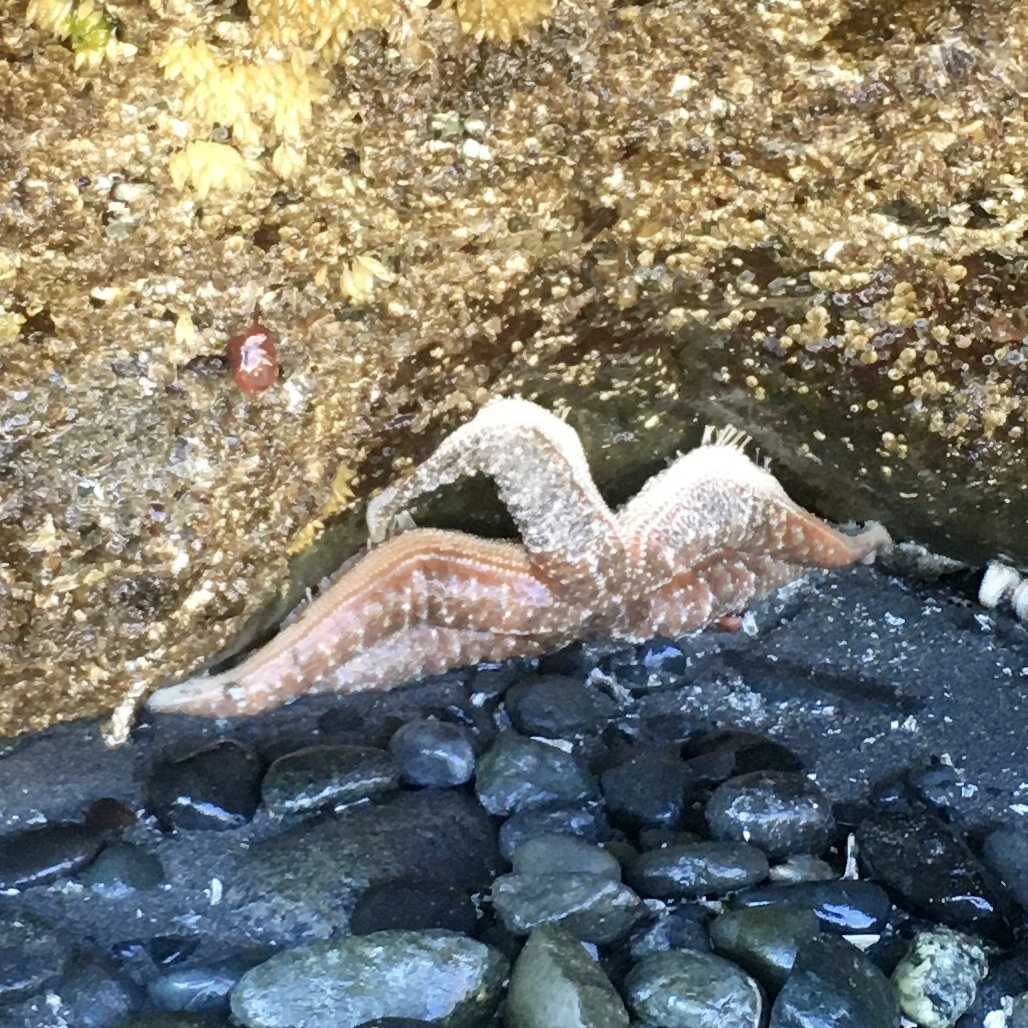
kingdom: Animalia
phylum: Echinodermata
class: Asteroidea
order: Forcipulatida
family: Asteriidae
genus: Evasterias
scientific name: Evasterias troschelii
